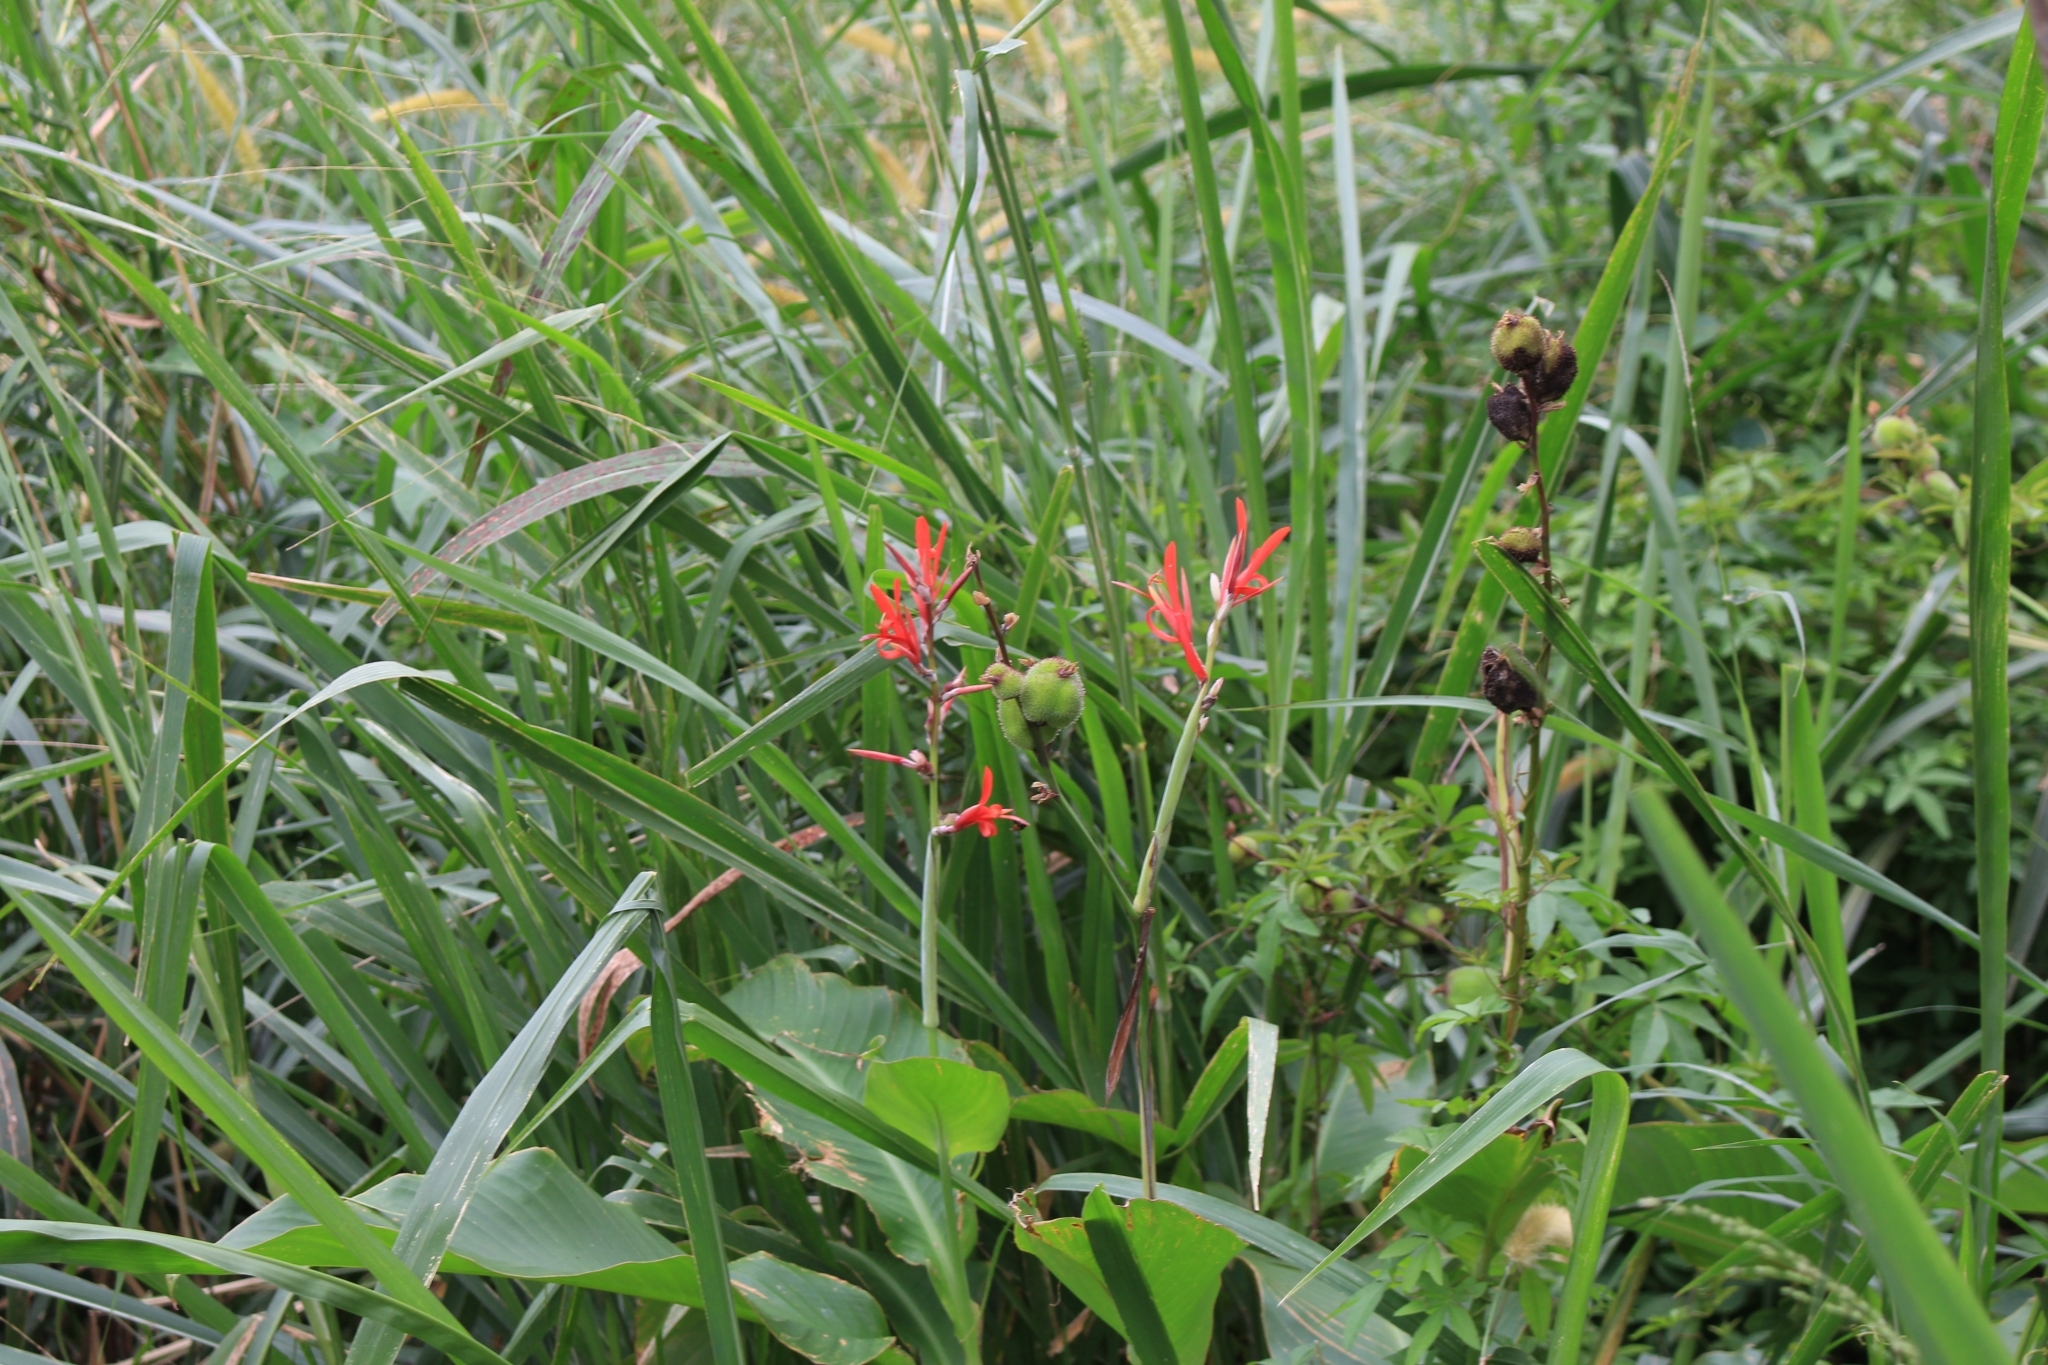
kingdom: Plantae
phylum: Tracheophyta
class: Liliopsida
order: Zingiberales
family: Cannaceae
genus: Canna
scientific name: Canna indica
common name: Indian shot
